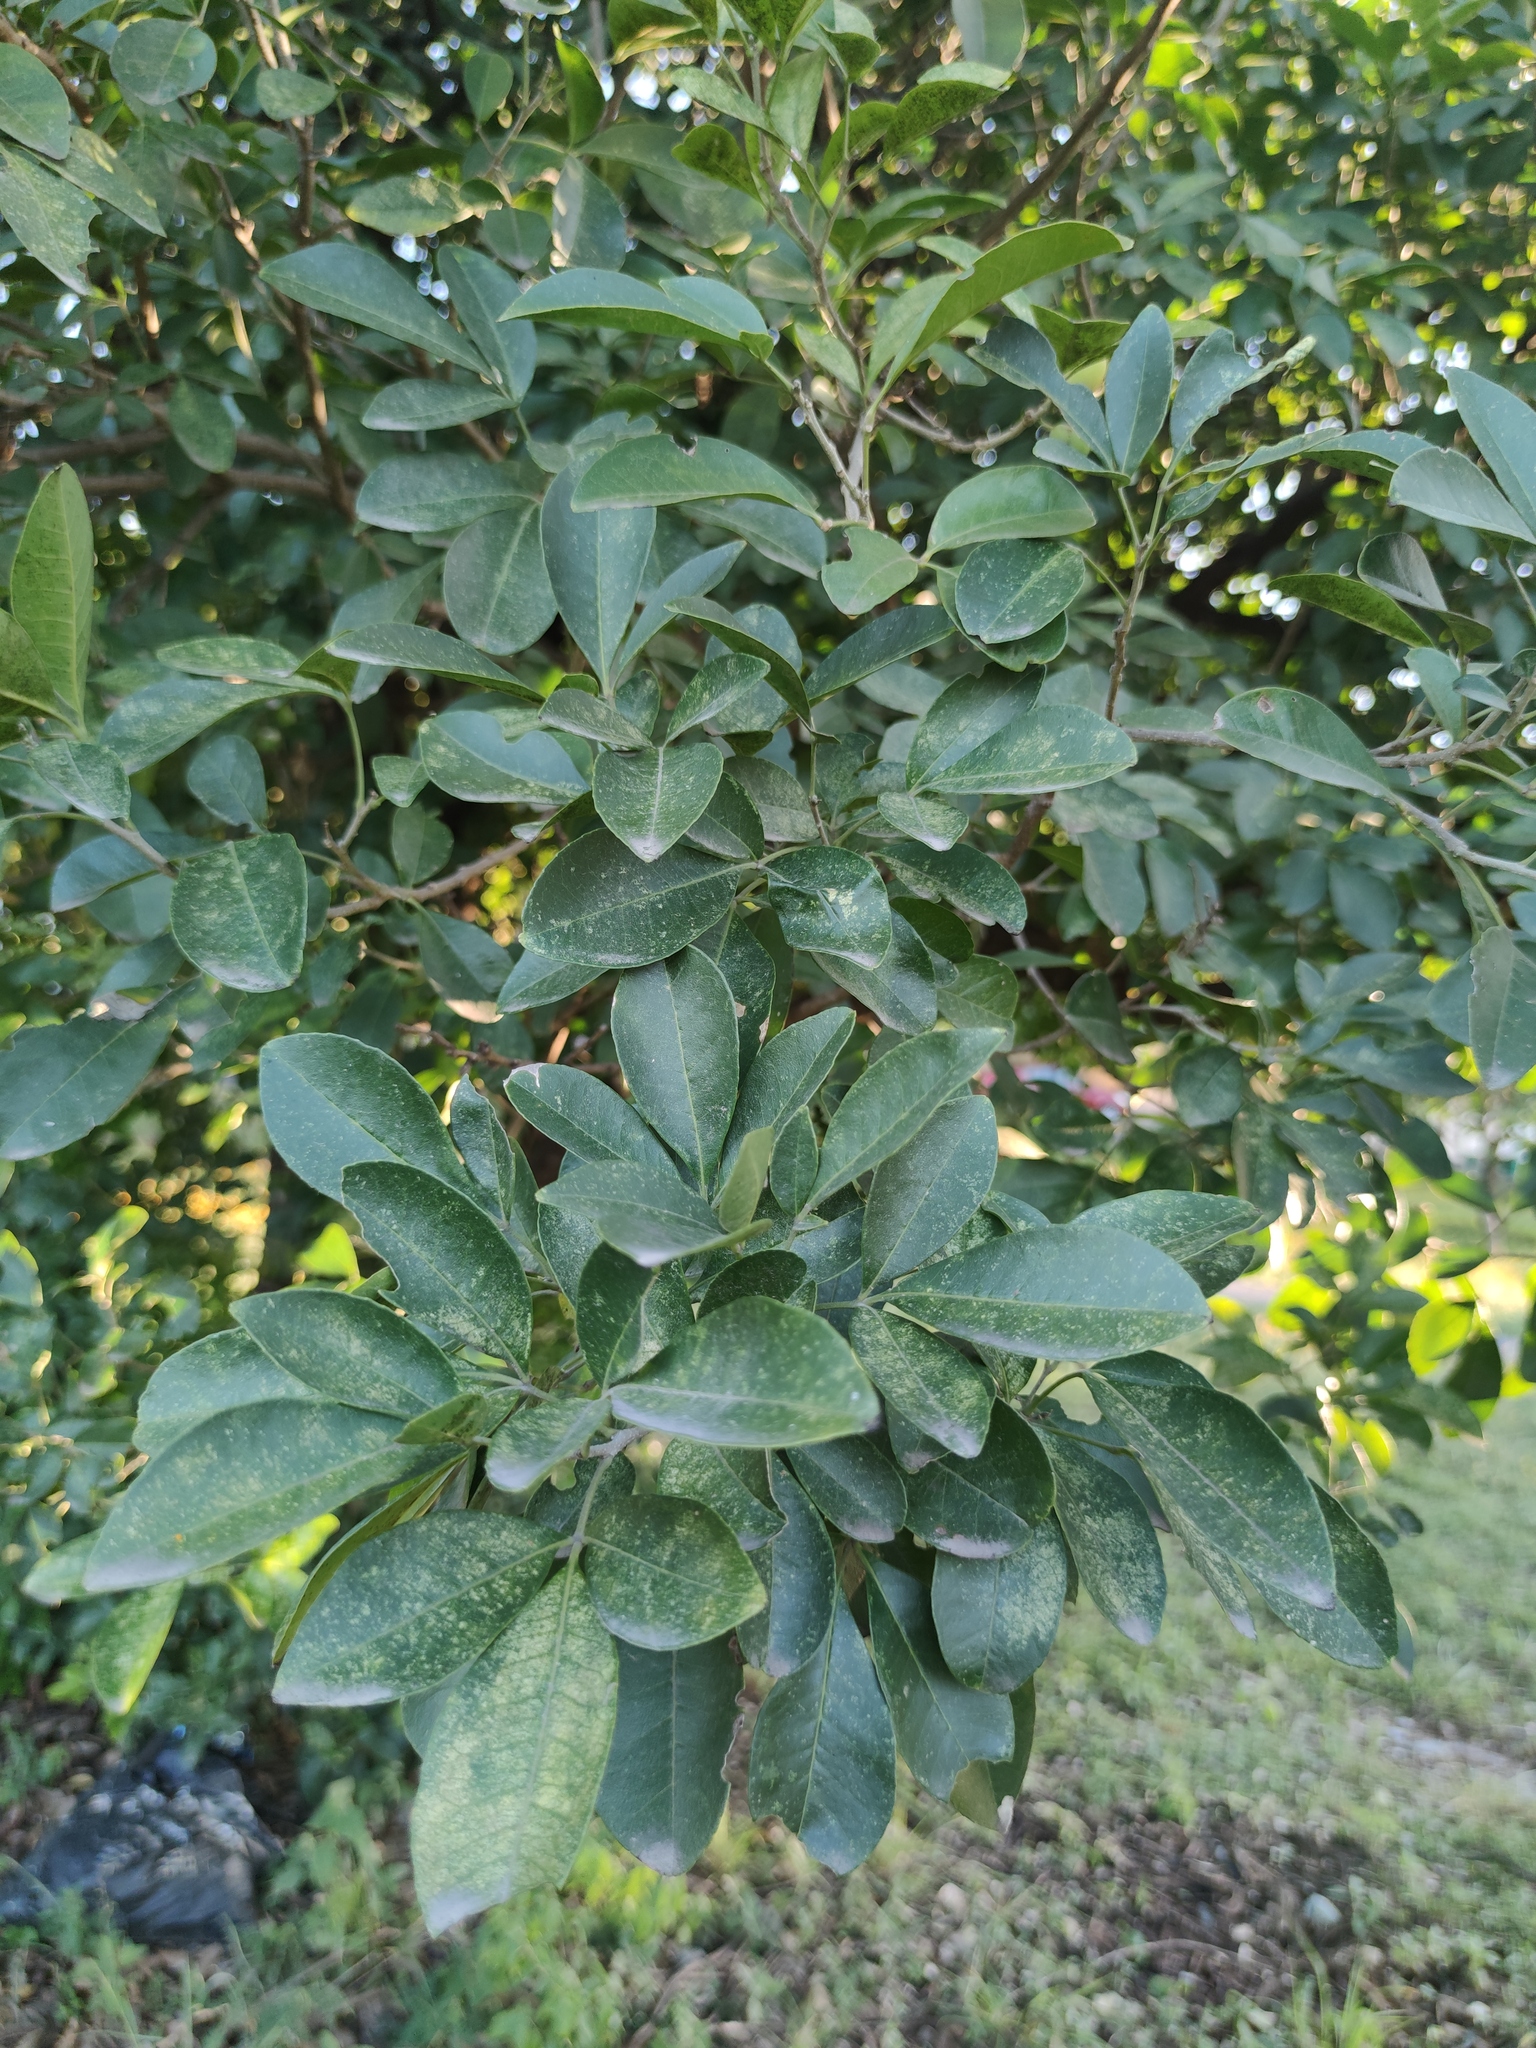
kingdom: Plantae
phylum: Tracheophyta
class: Magnoliopsida
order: Sapindales
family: Rutaceae
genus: Casimiroa
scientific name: Casimiroa greggii
